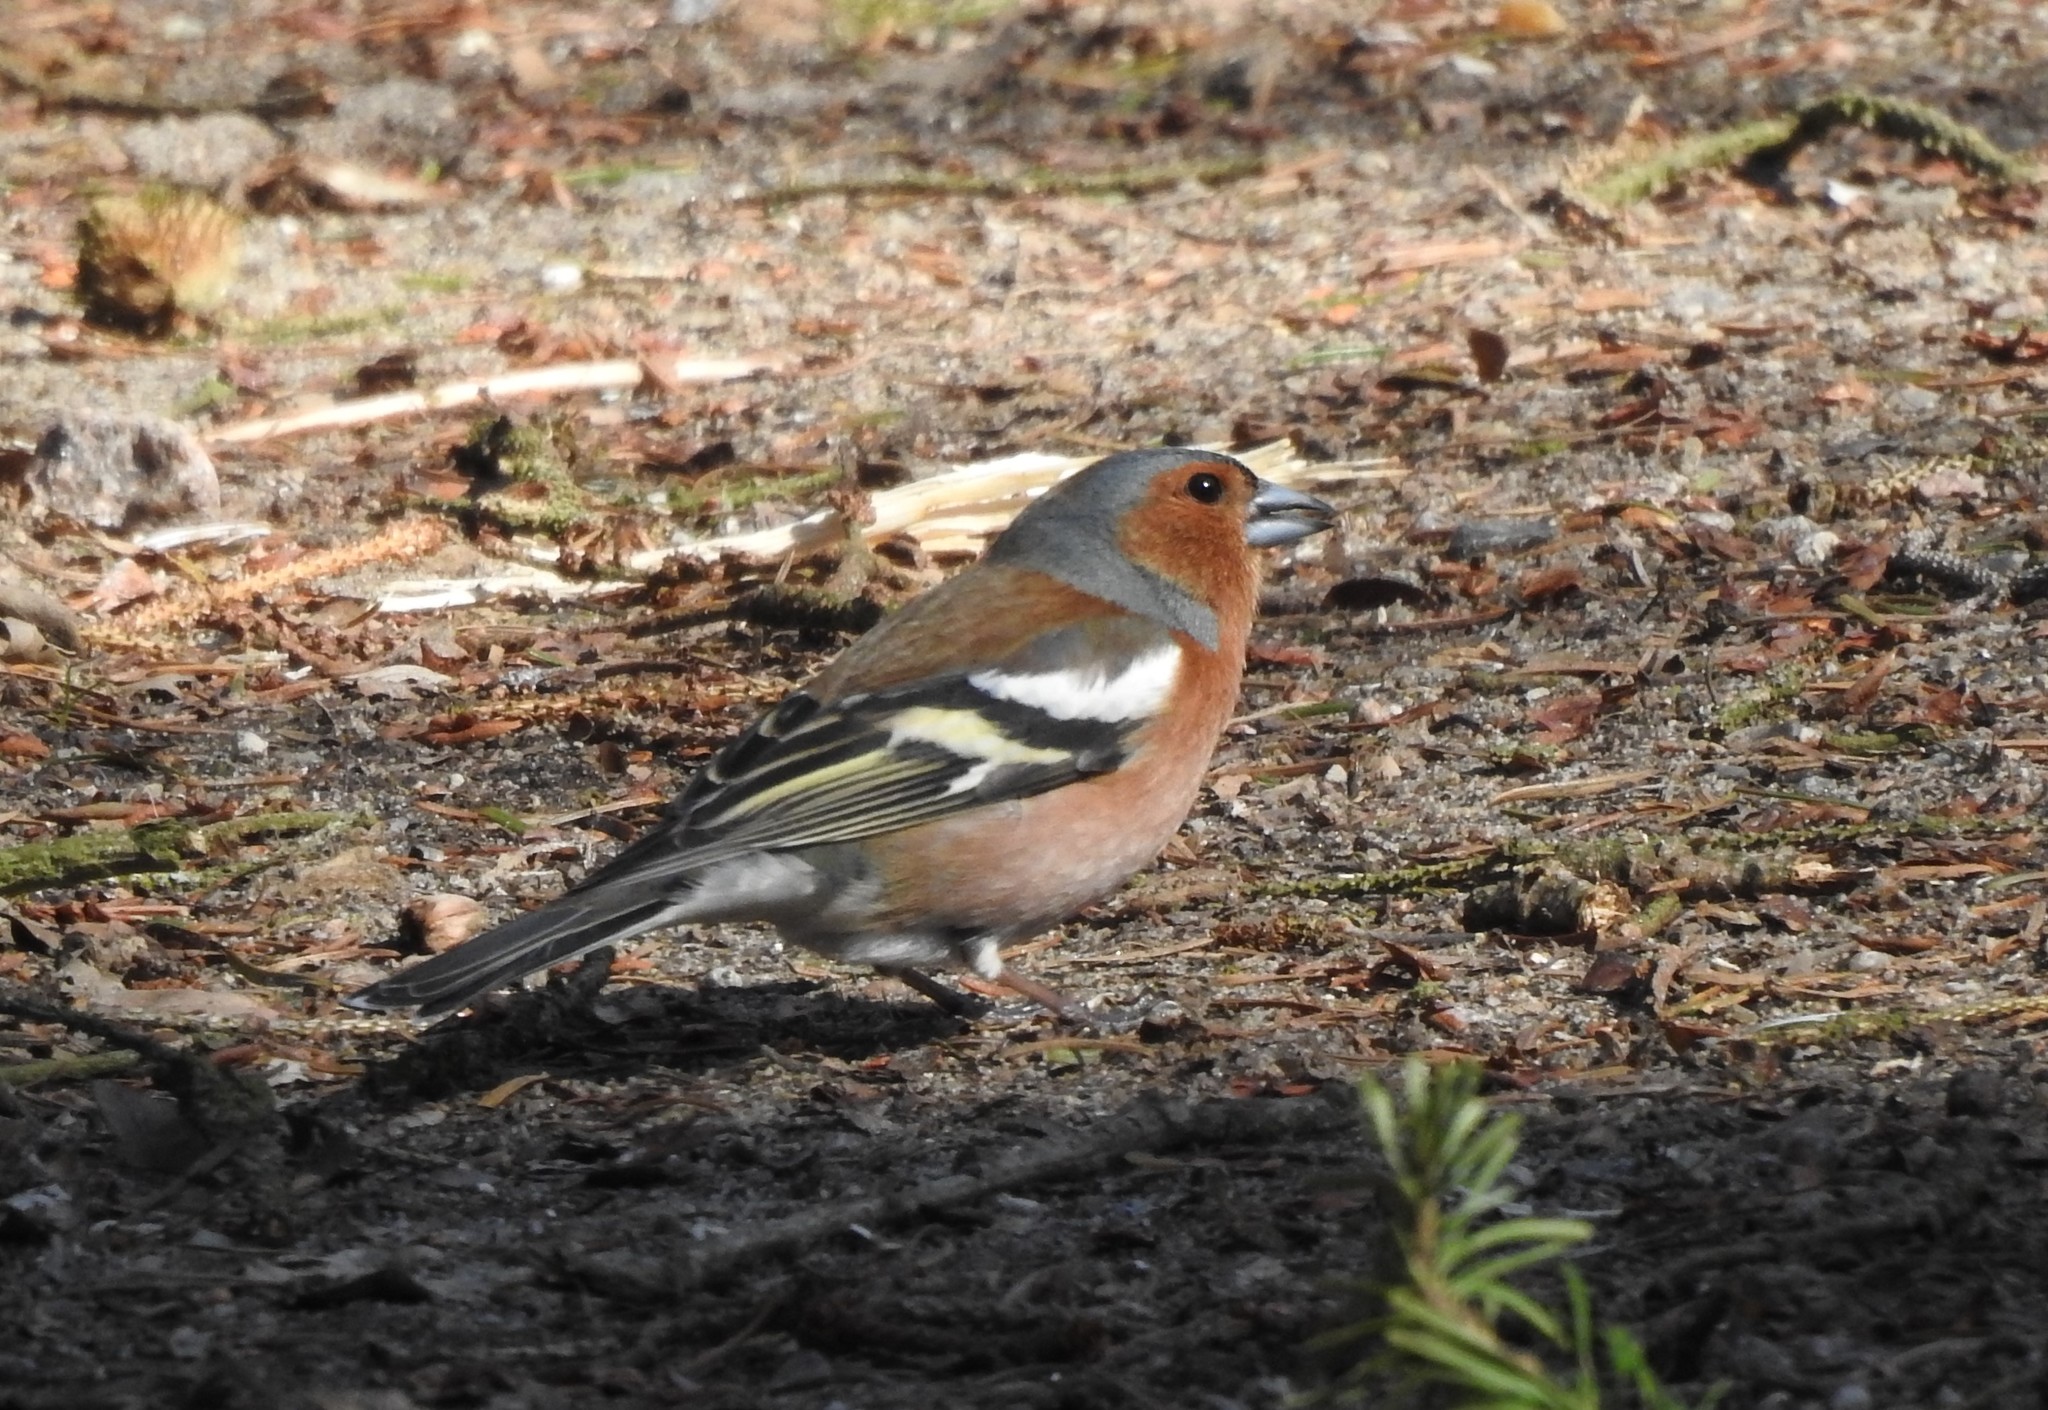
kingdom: Animalia
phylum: Chordata
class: Aves
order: Passeriformes
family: Fringillidae
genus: Fringilla
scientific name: Fringilla coelebs
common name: Common chaffinch
